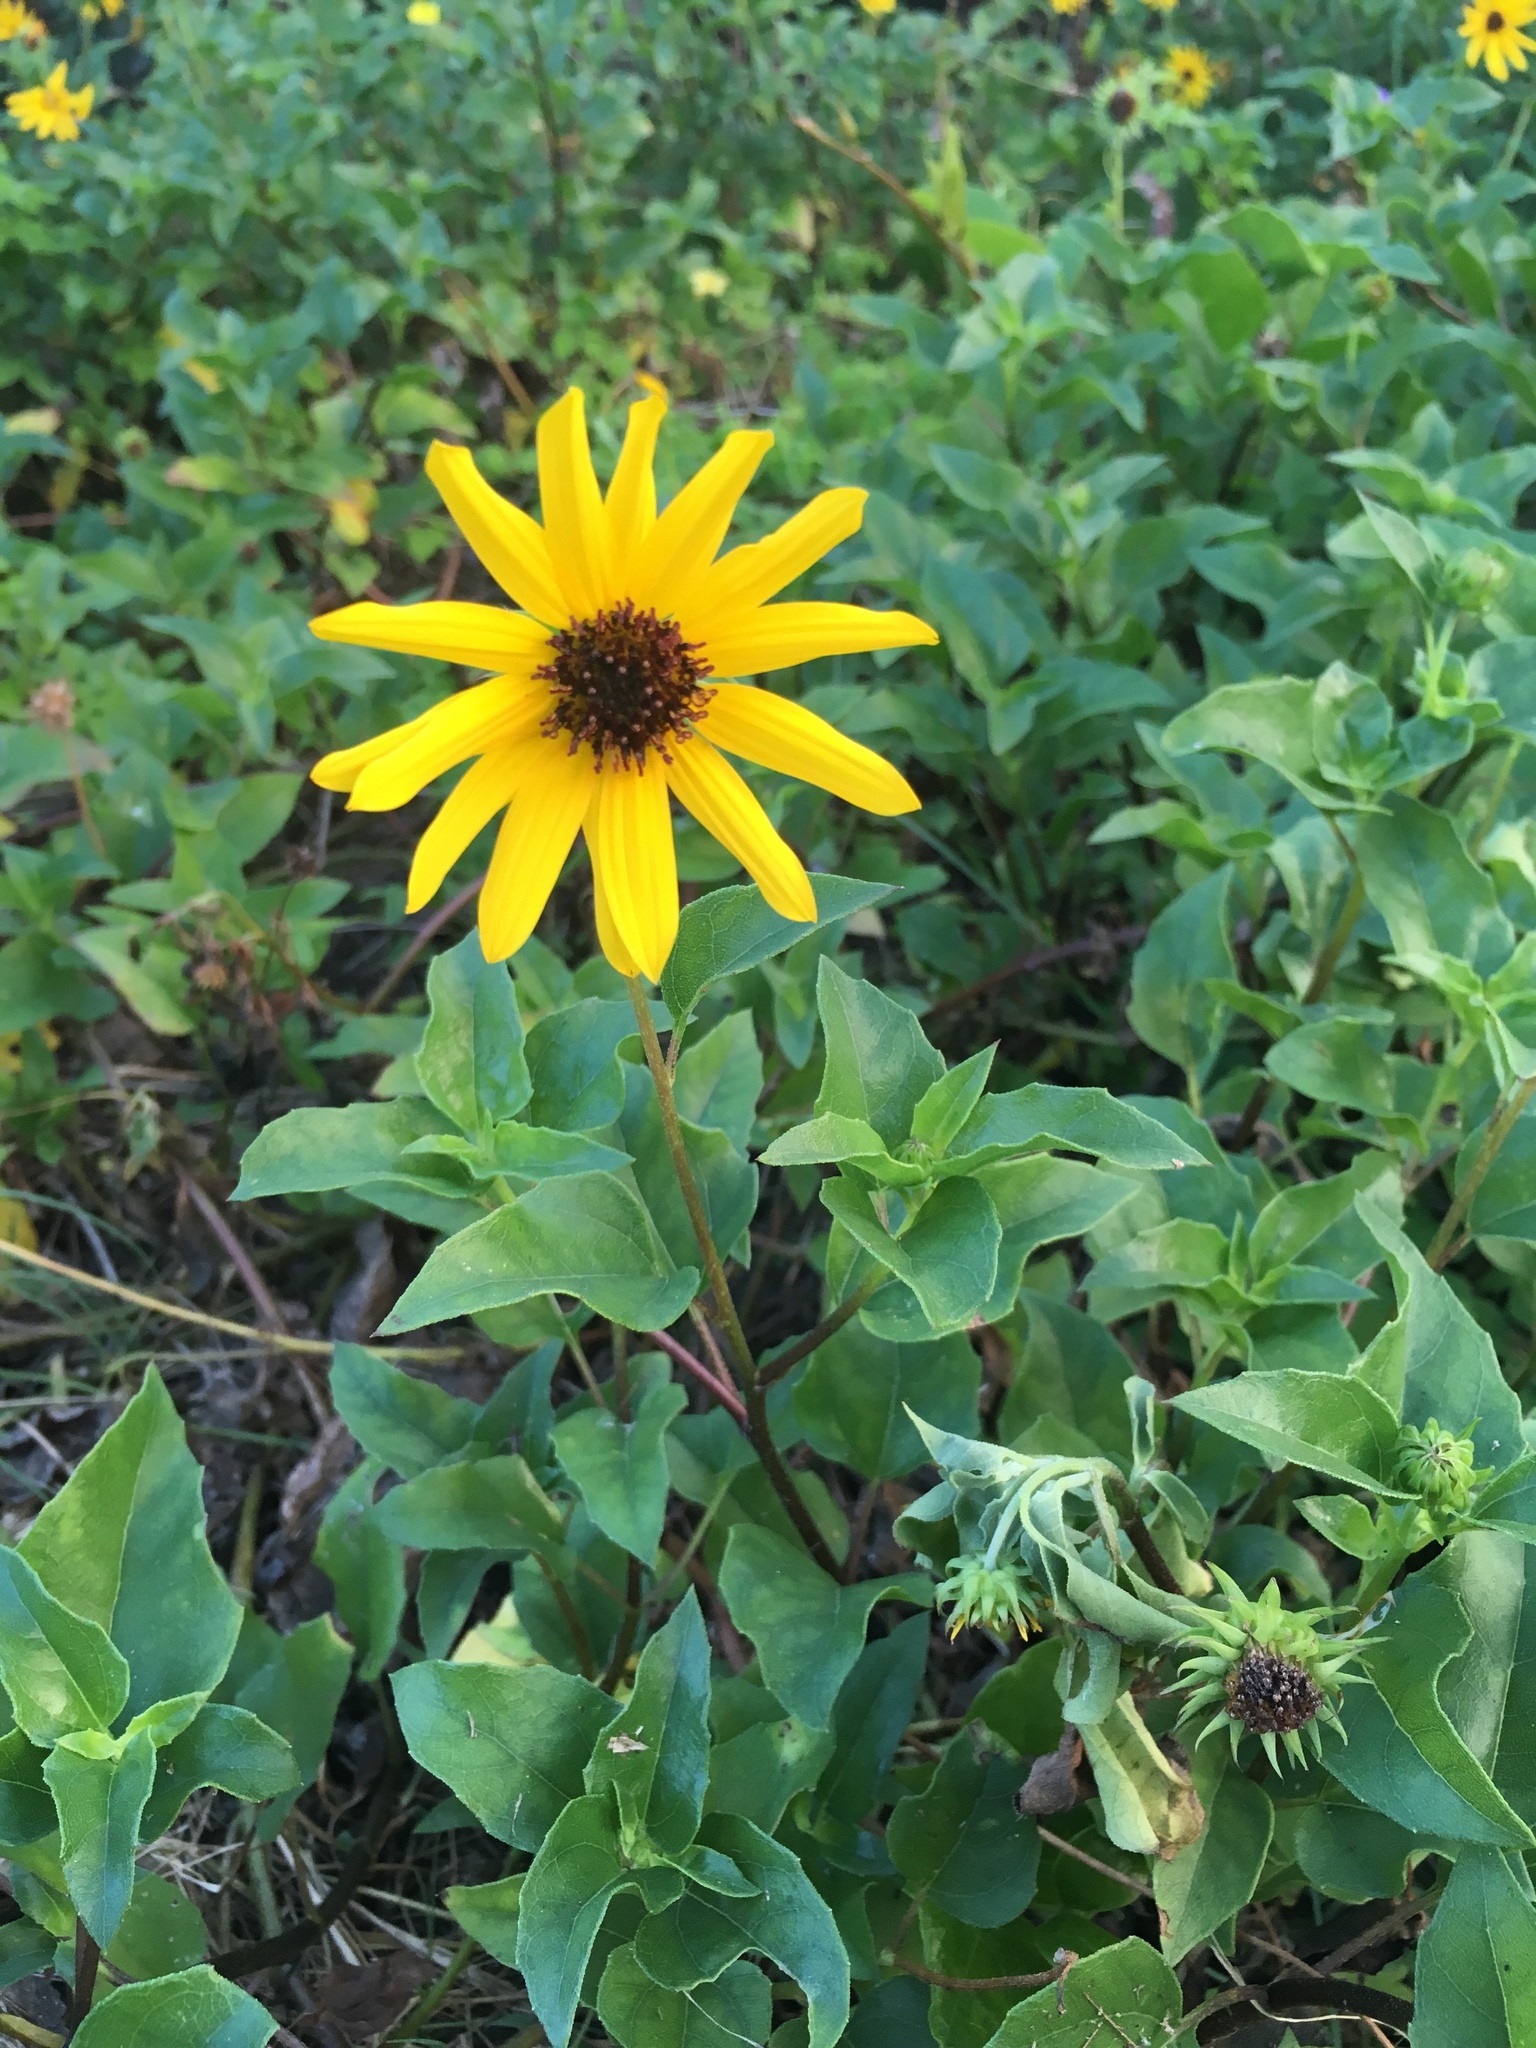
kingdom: Plantae
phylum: Tracheophyta
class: Magnoliopsida
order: Asterales
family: Asteraceae
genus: Helianthus
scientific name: Helianthus debilis
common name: Weak sunflower
